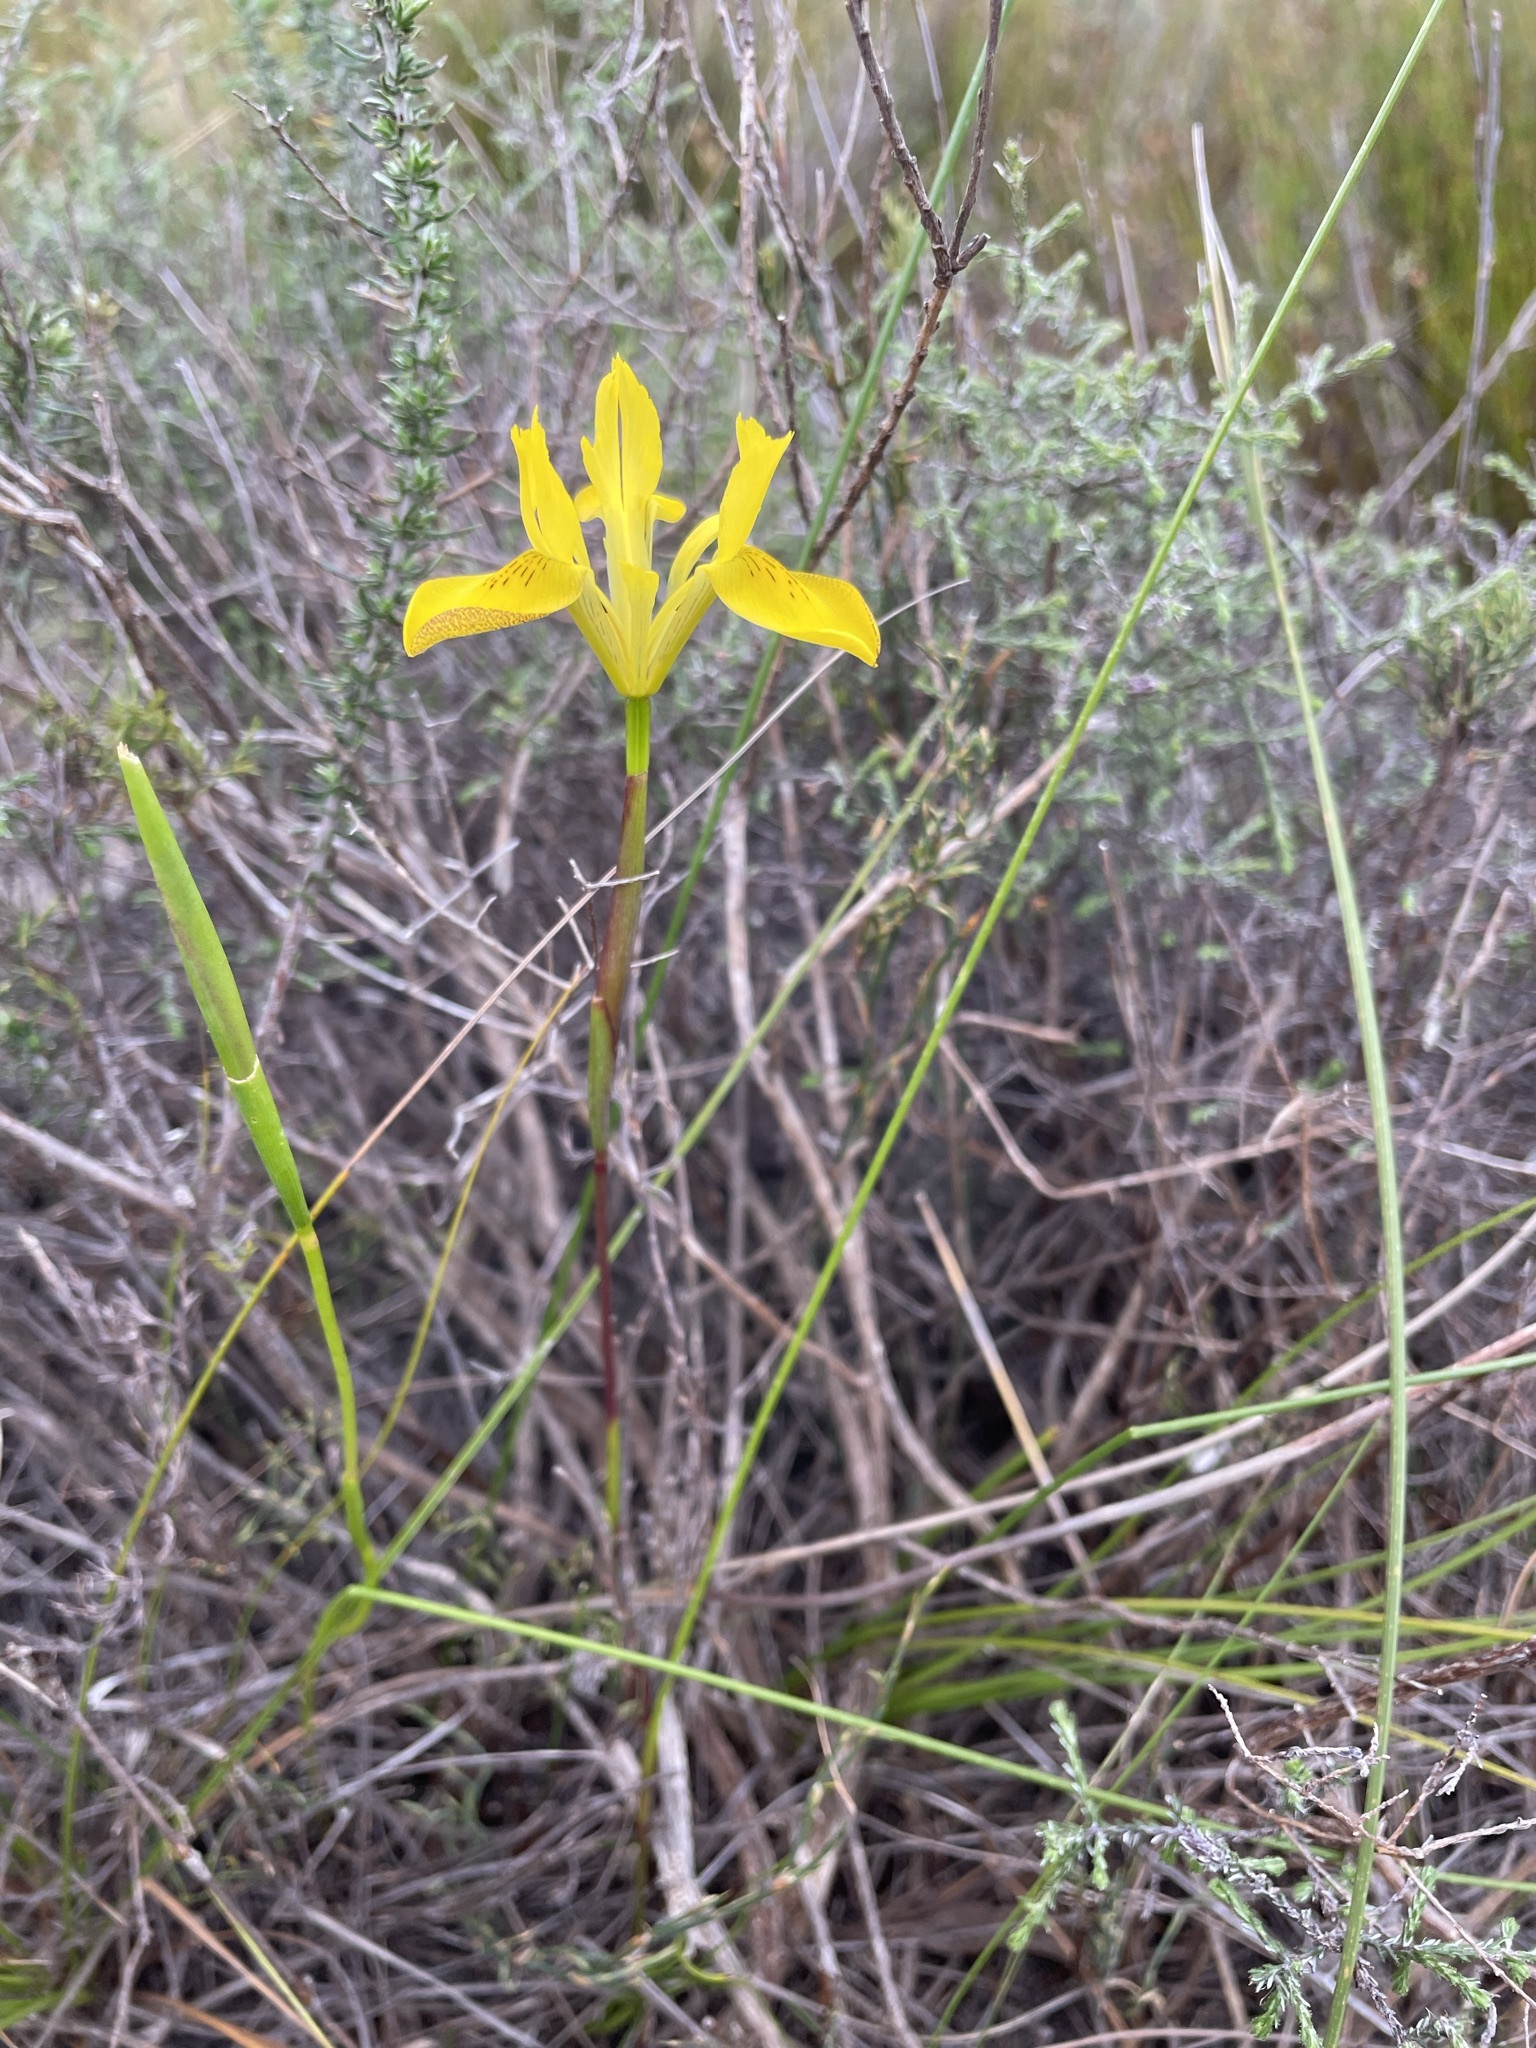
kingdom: Plantae
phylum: Tracheophyta
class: Liliopsida
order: Asparagales
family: Iridaceae
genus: Moraea
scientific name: Moraea neglecta
